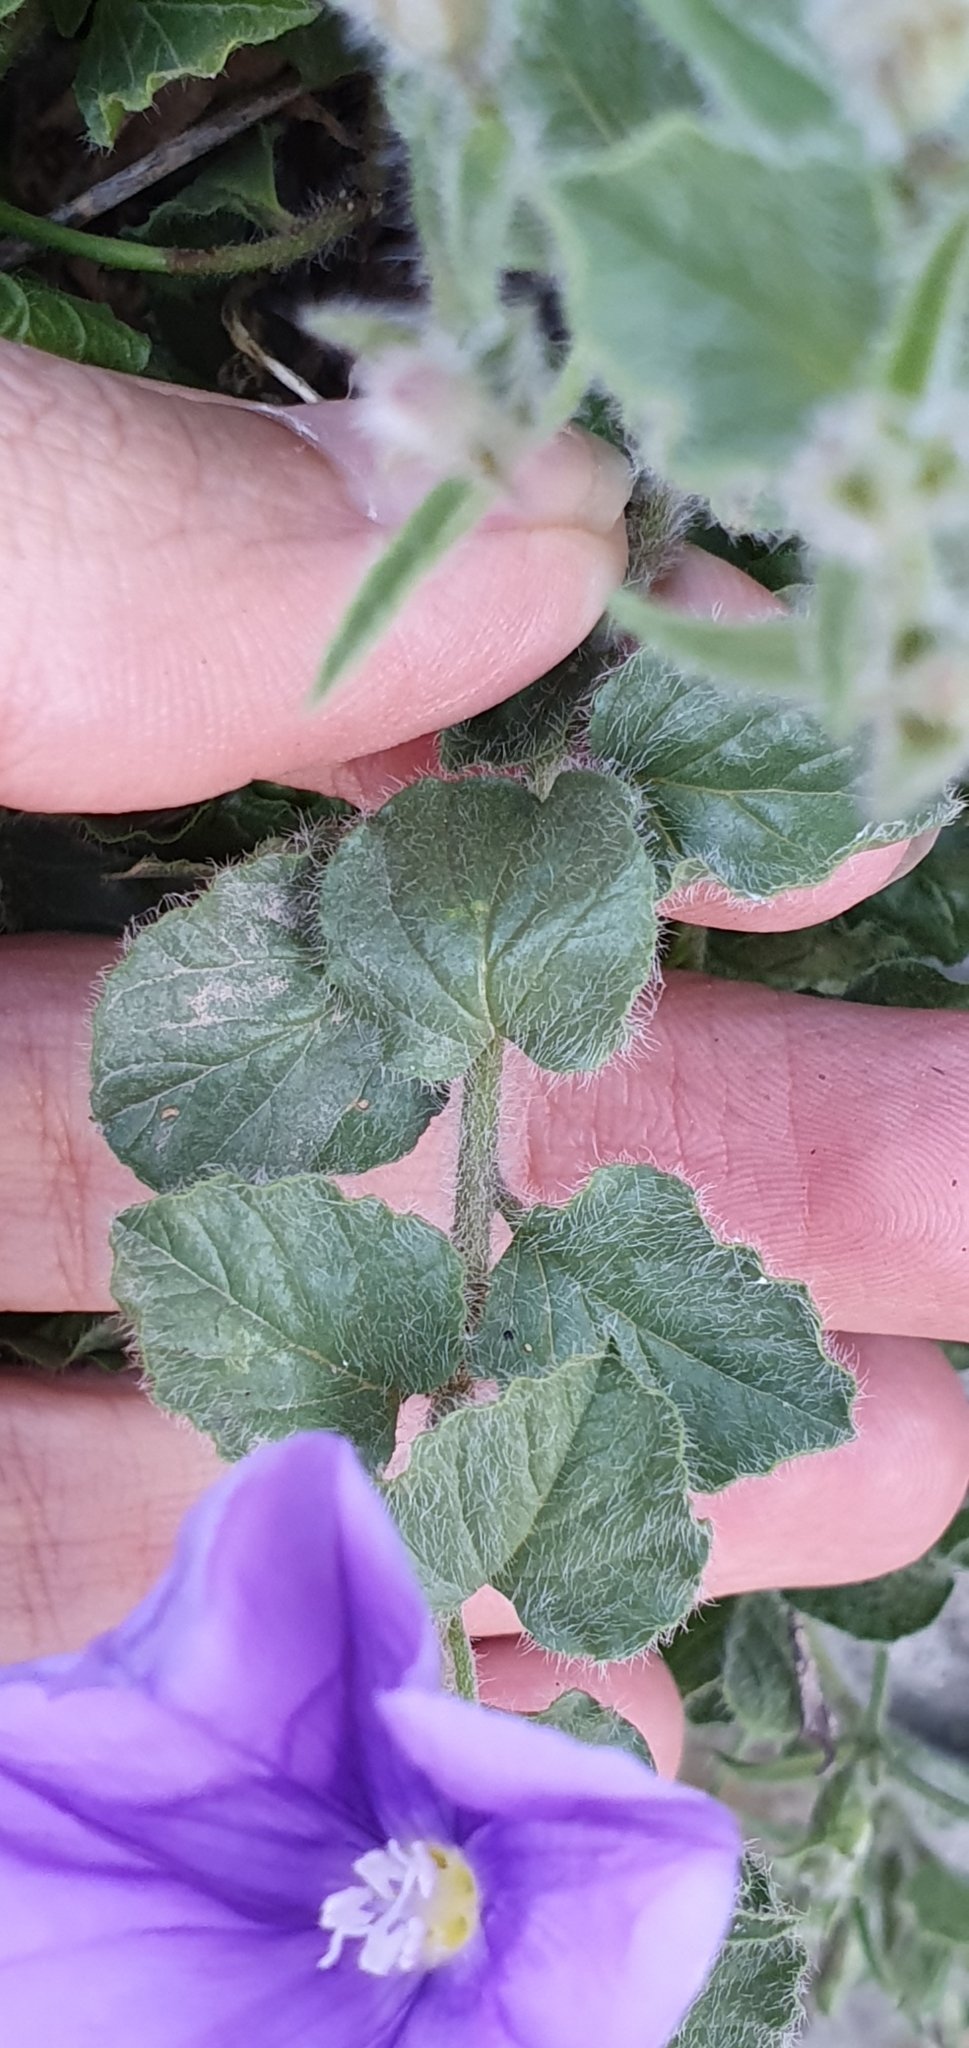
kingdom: Plantae
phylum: Tracheophyta
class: Magnoliopsida
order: Solanales
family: Convolvulaceae
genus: Convolvulus
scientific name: Convolvulus sabatius
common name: Ground blue-convolvulus
